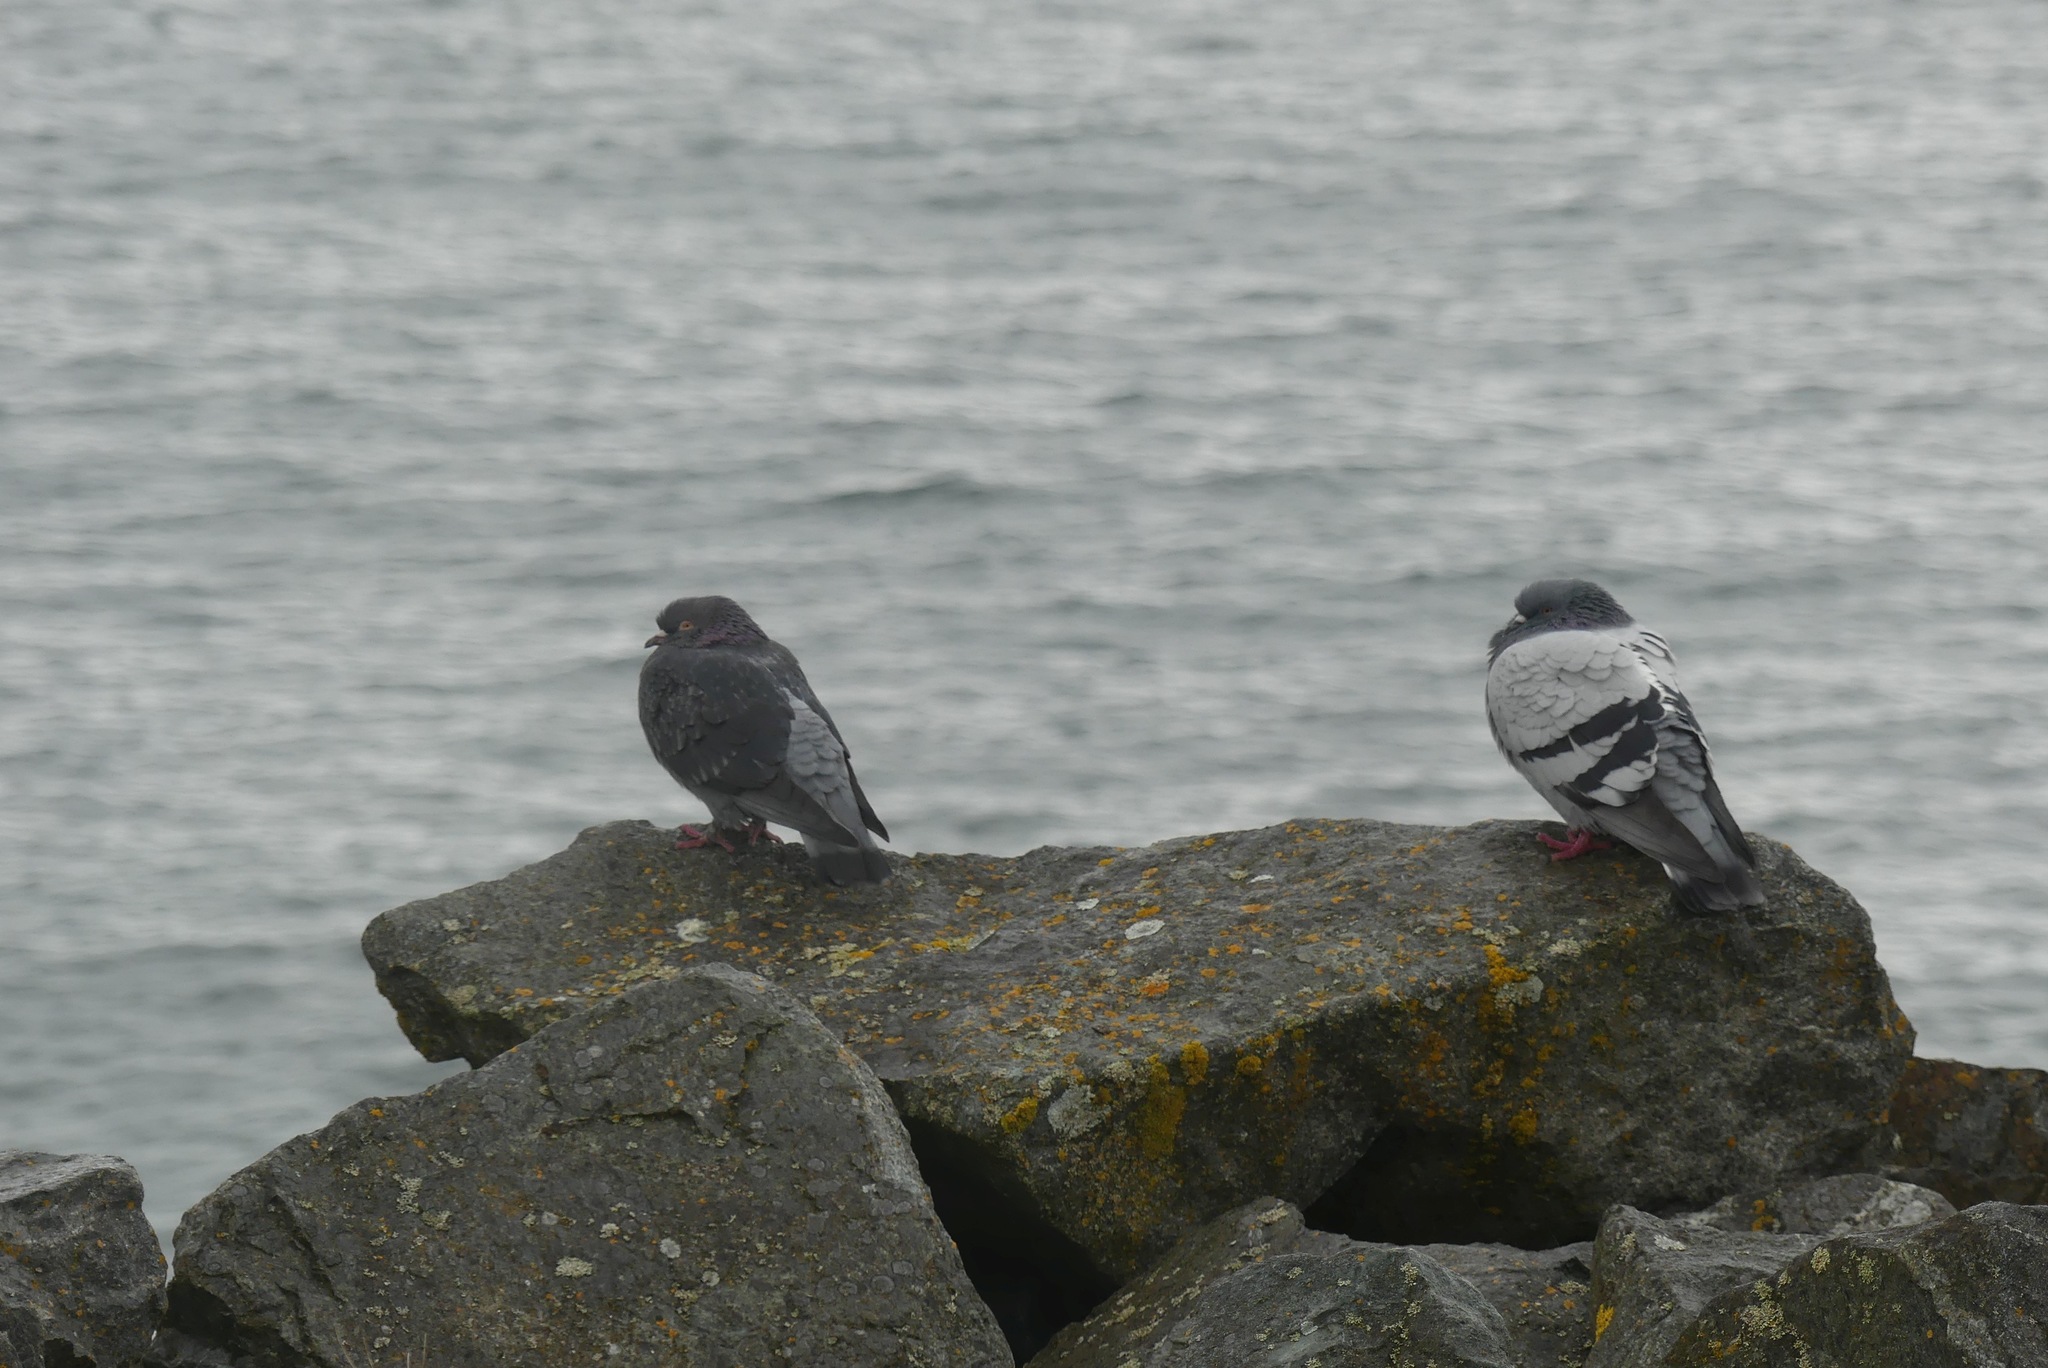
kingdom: Animalia
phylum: Chordata
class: Aves
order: Columbiformes
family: Columbidae
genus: Columba
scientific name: Columba livia
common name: Rock pigeon
